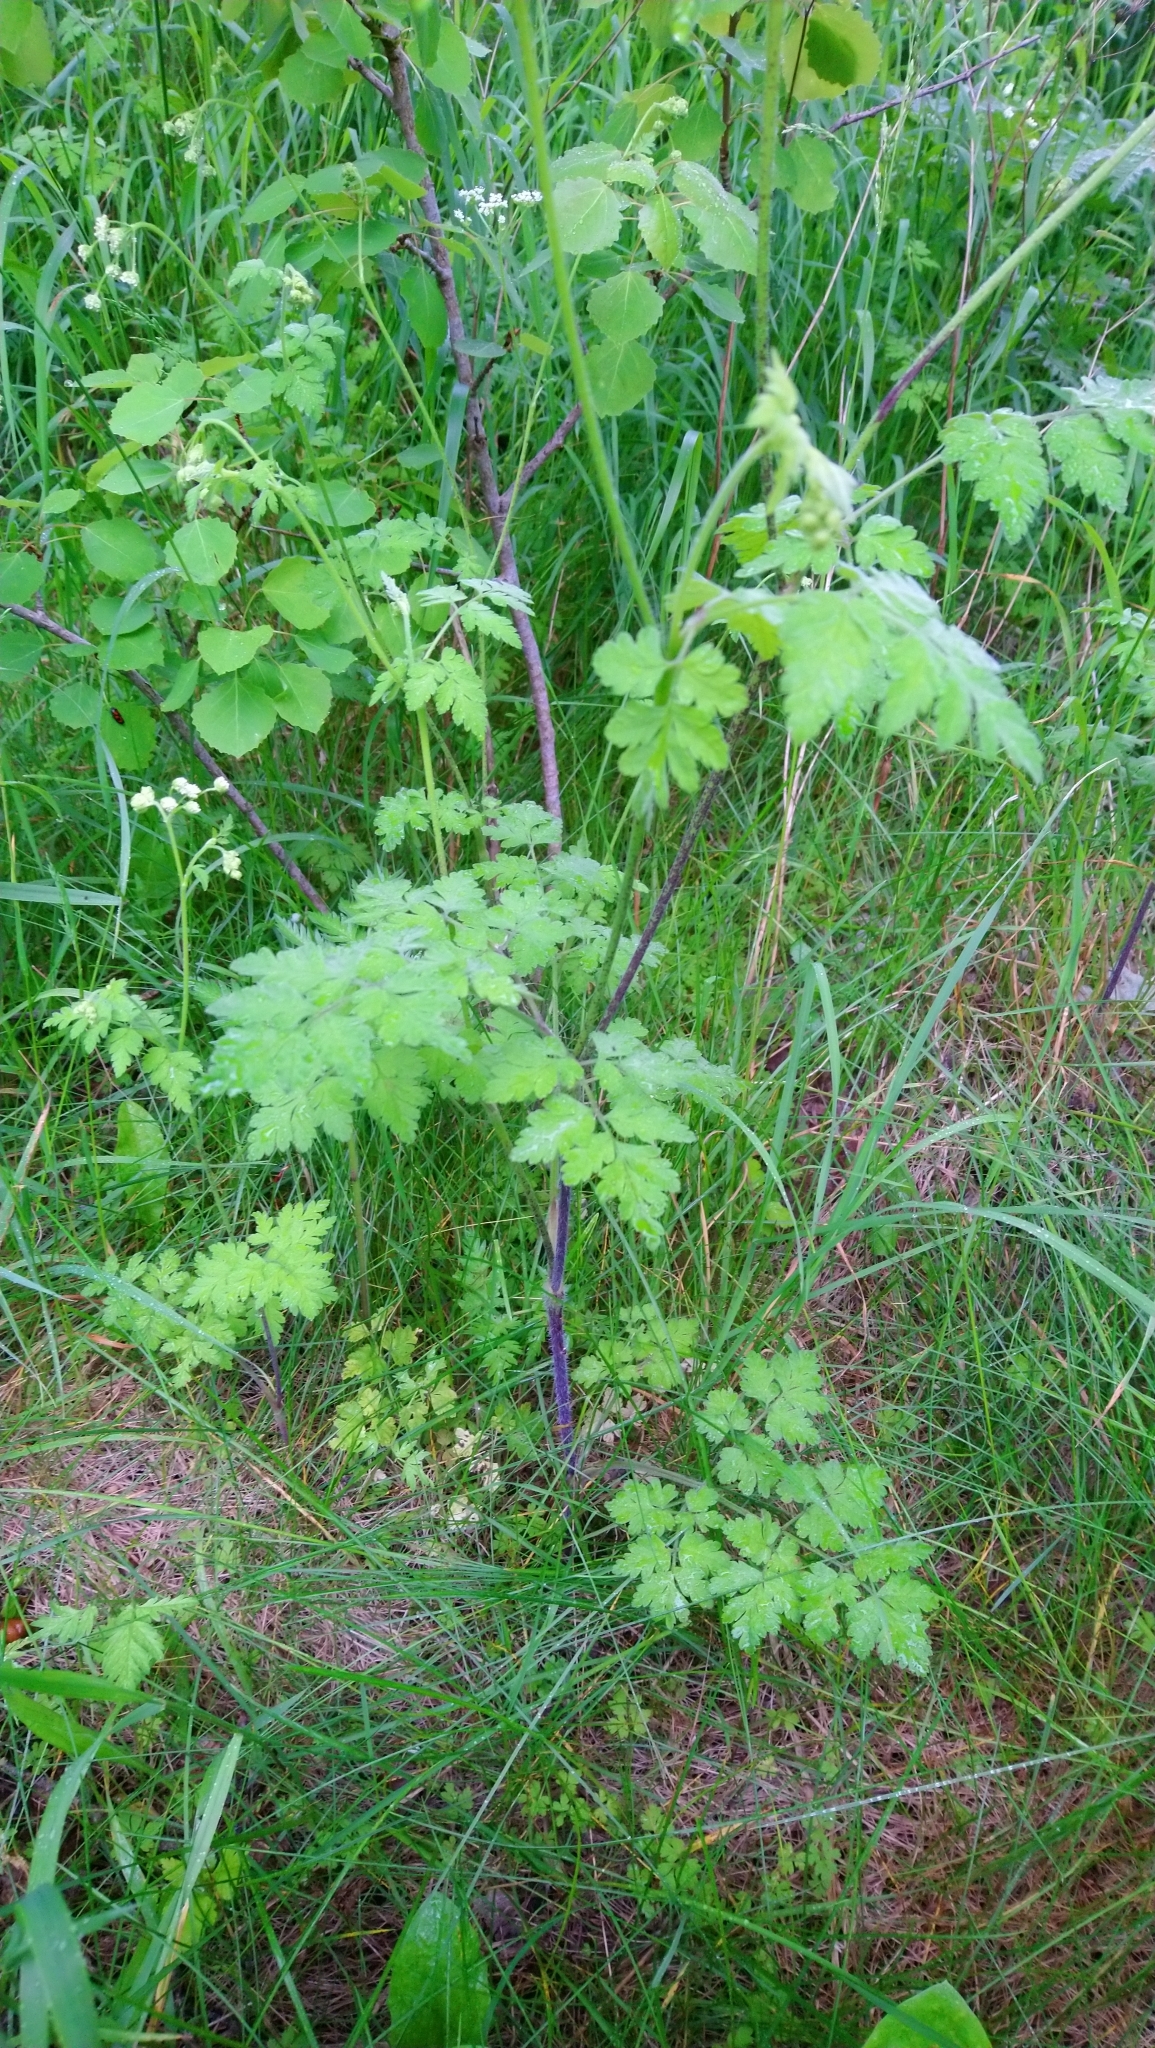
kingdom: Plantae
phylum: Tracheophyta
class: Magnoliopsida
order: Apiales
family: Apiaceae
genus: Chaerophyllum
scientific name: Chaerophyllum temulum
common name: Rough chervil
